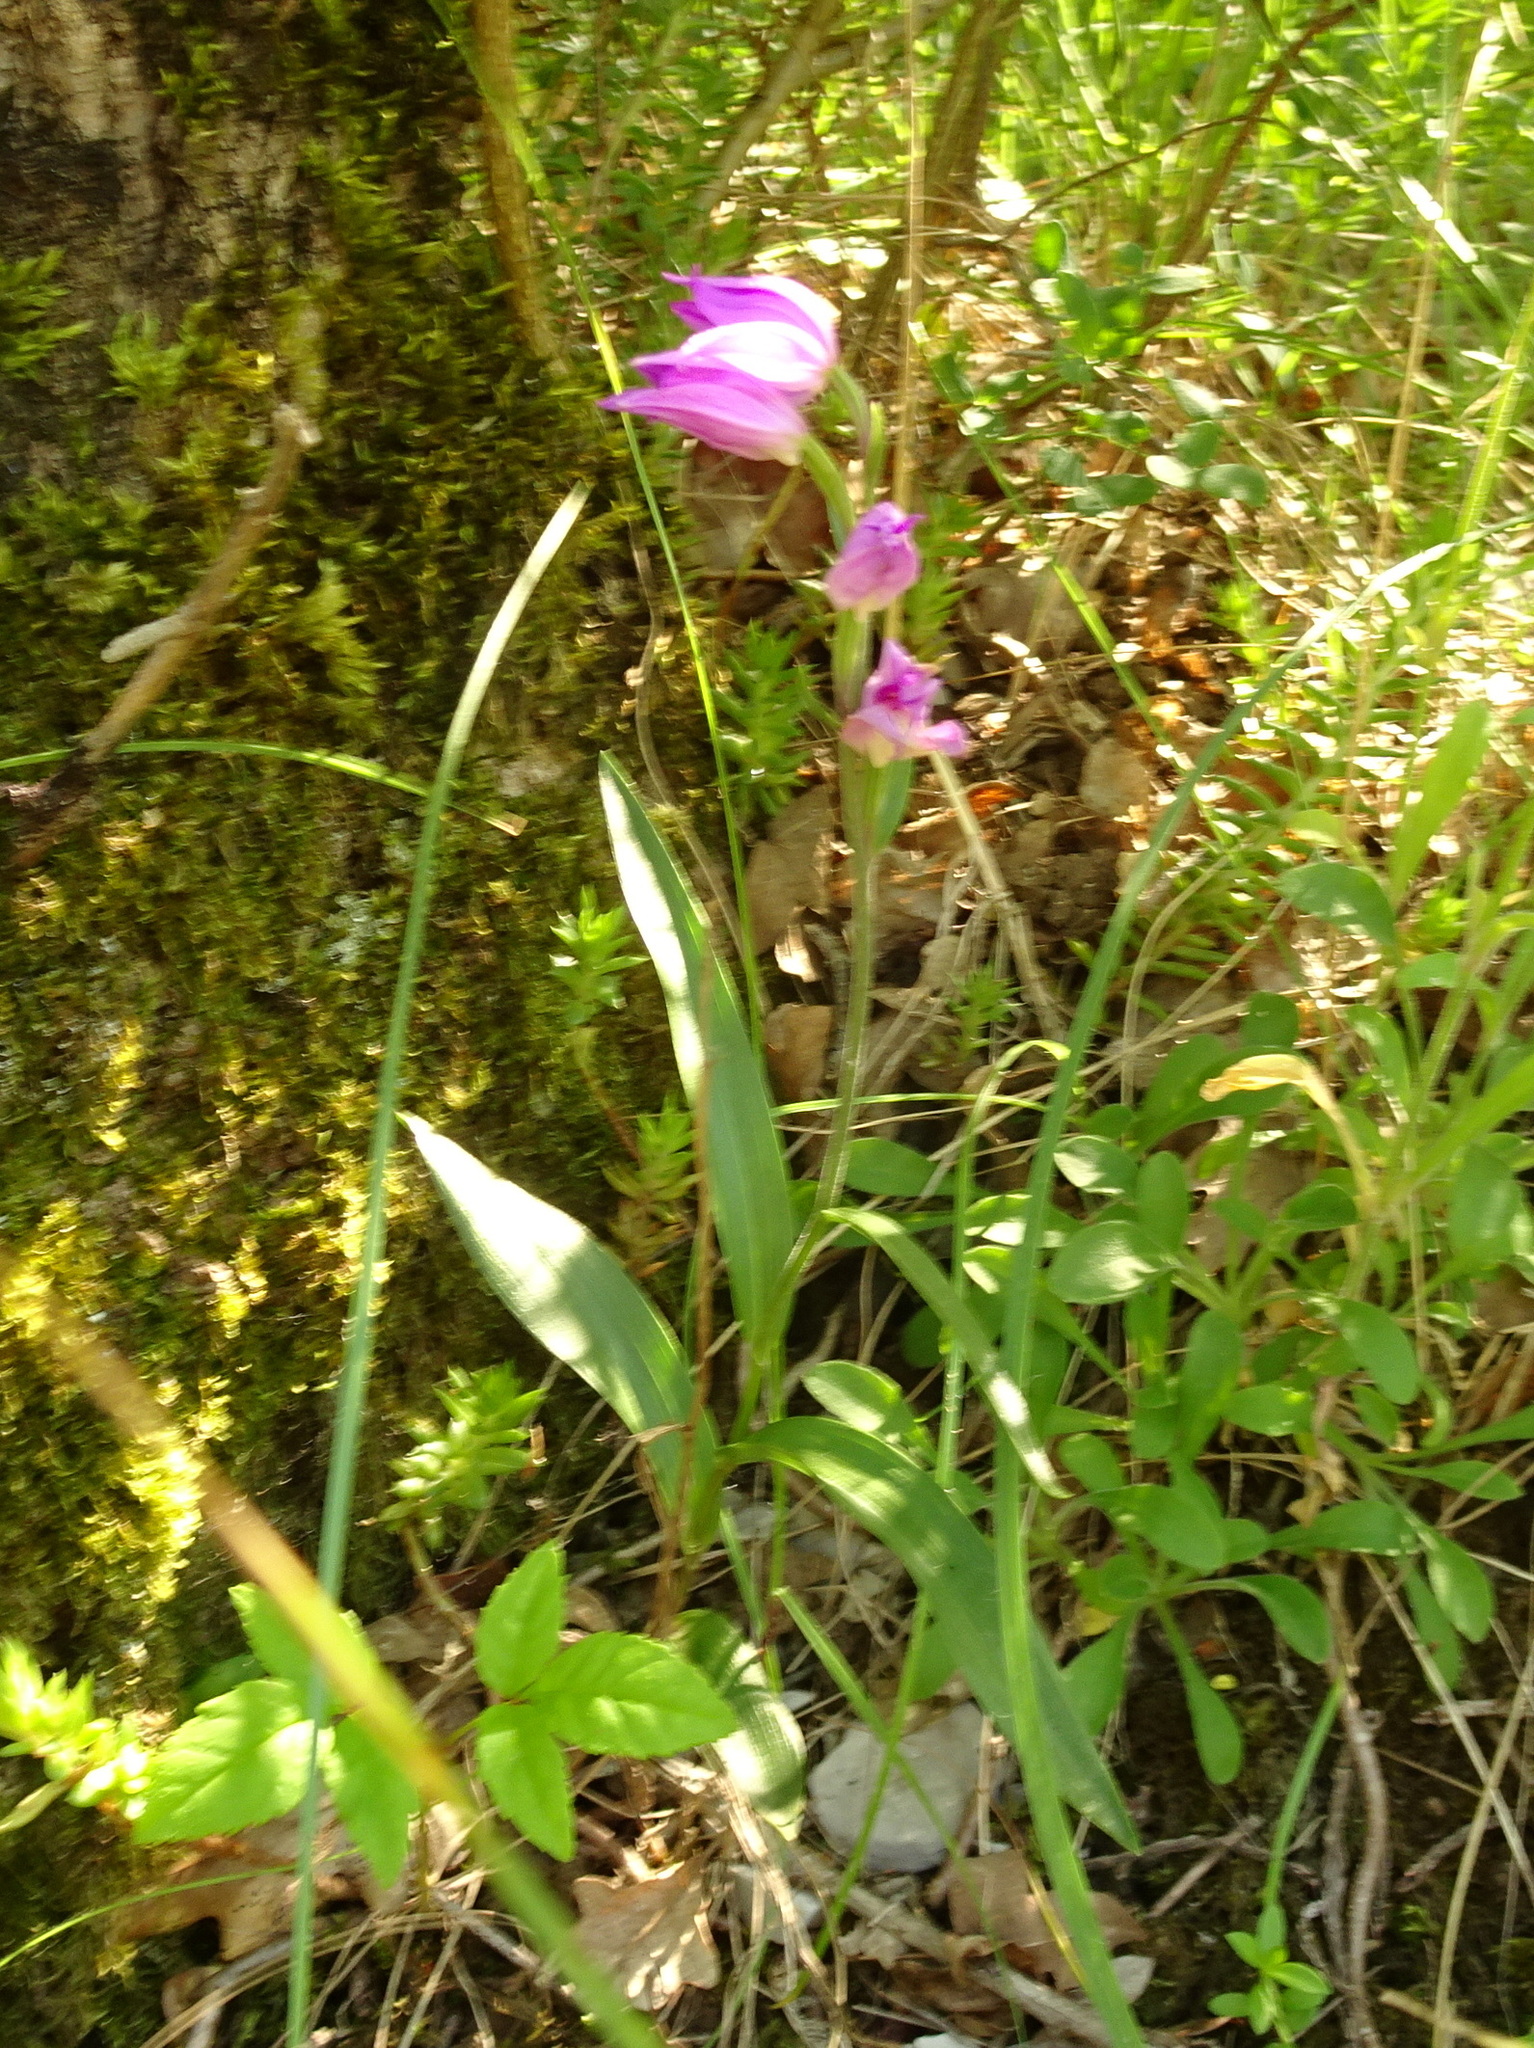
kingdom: Plantae
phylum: Tracheophyta
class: Liliopsida
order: Asparagales
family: Orchidaceae
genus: Cephalanthera
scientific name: Cephalanthera rubra
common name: Red helleborine
